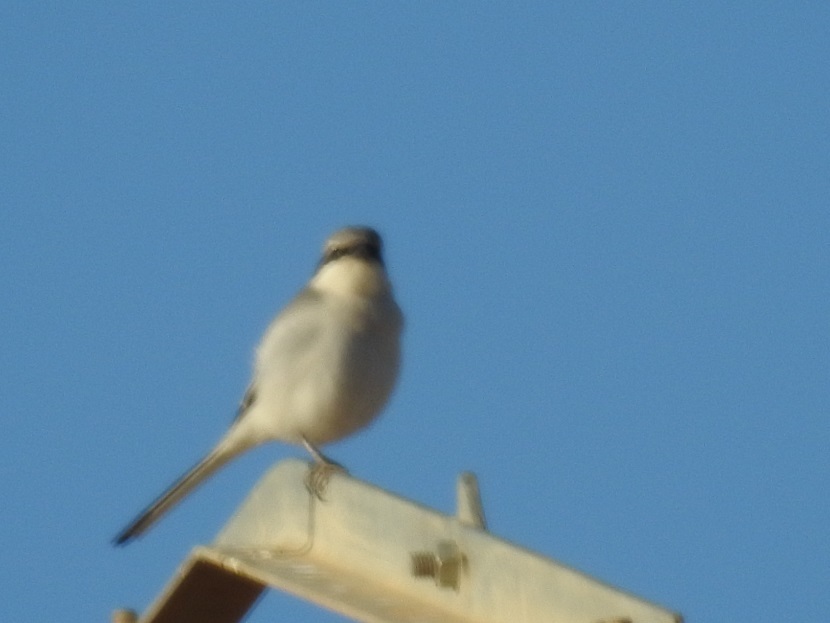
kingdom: Animalia
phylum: Chordata
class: Aves
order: Passeriformes
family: Laniidae
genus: Lanius
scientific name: Lanius excubitor
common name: Great grey shrike
